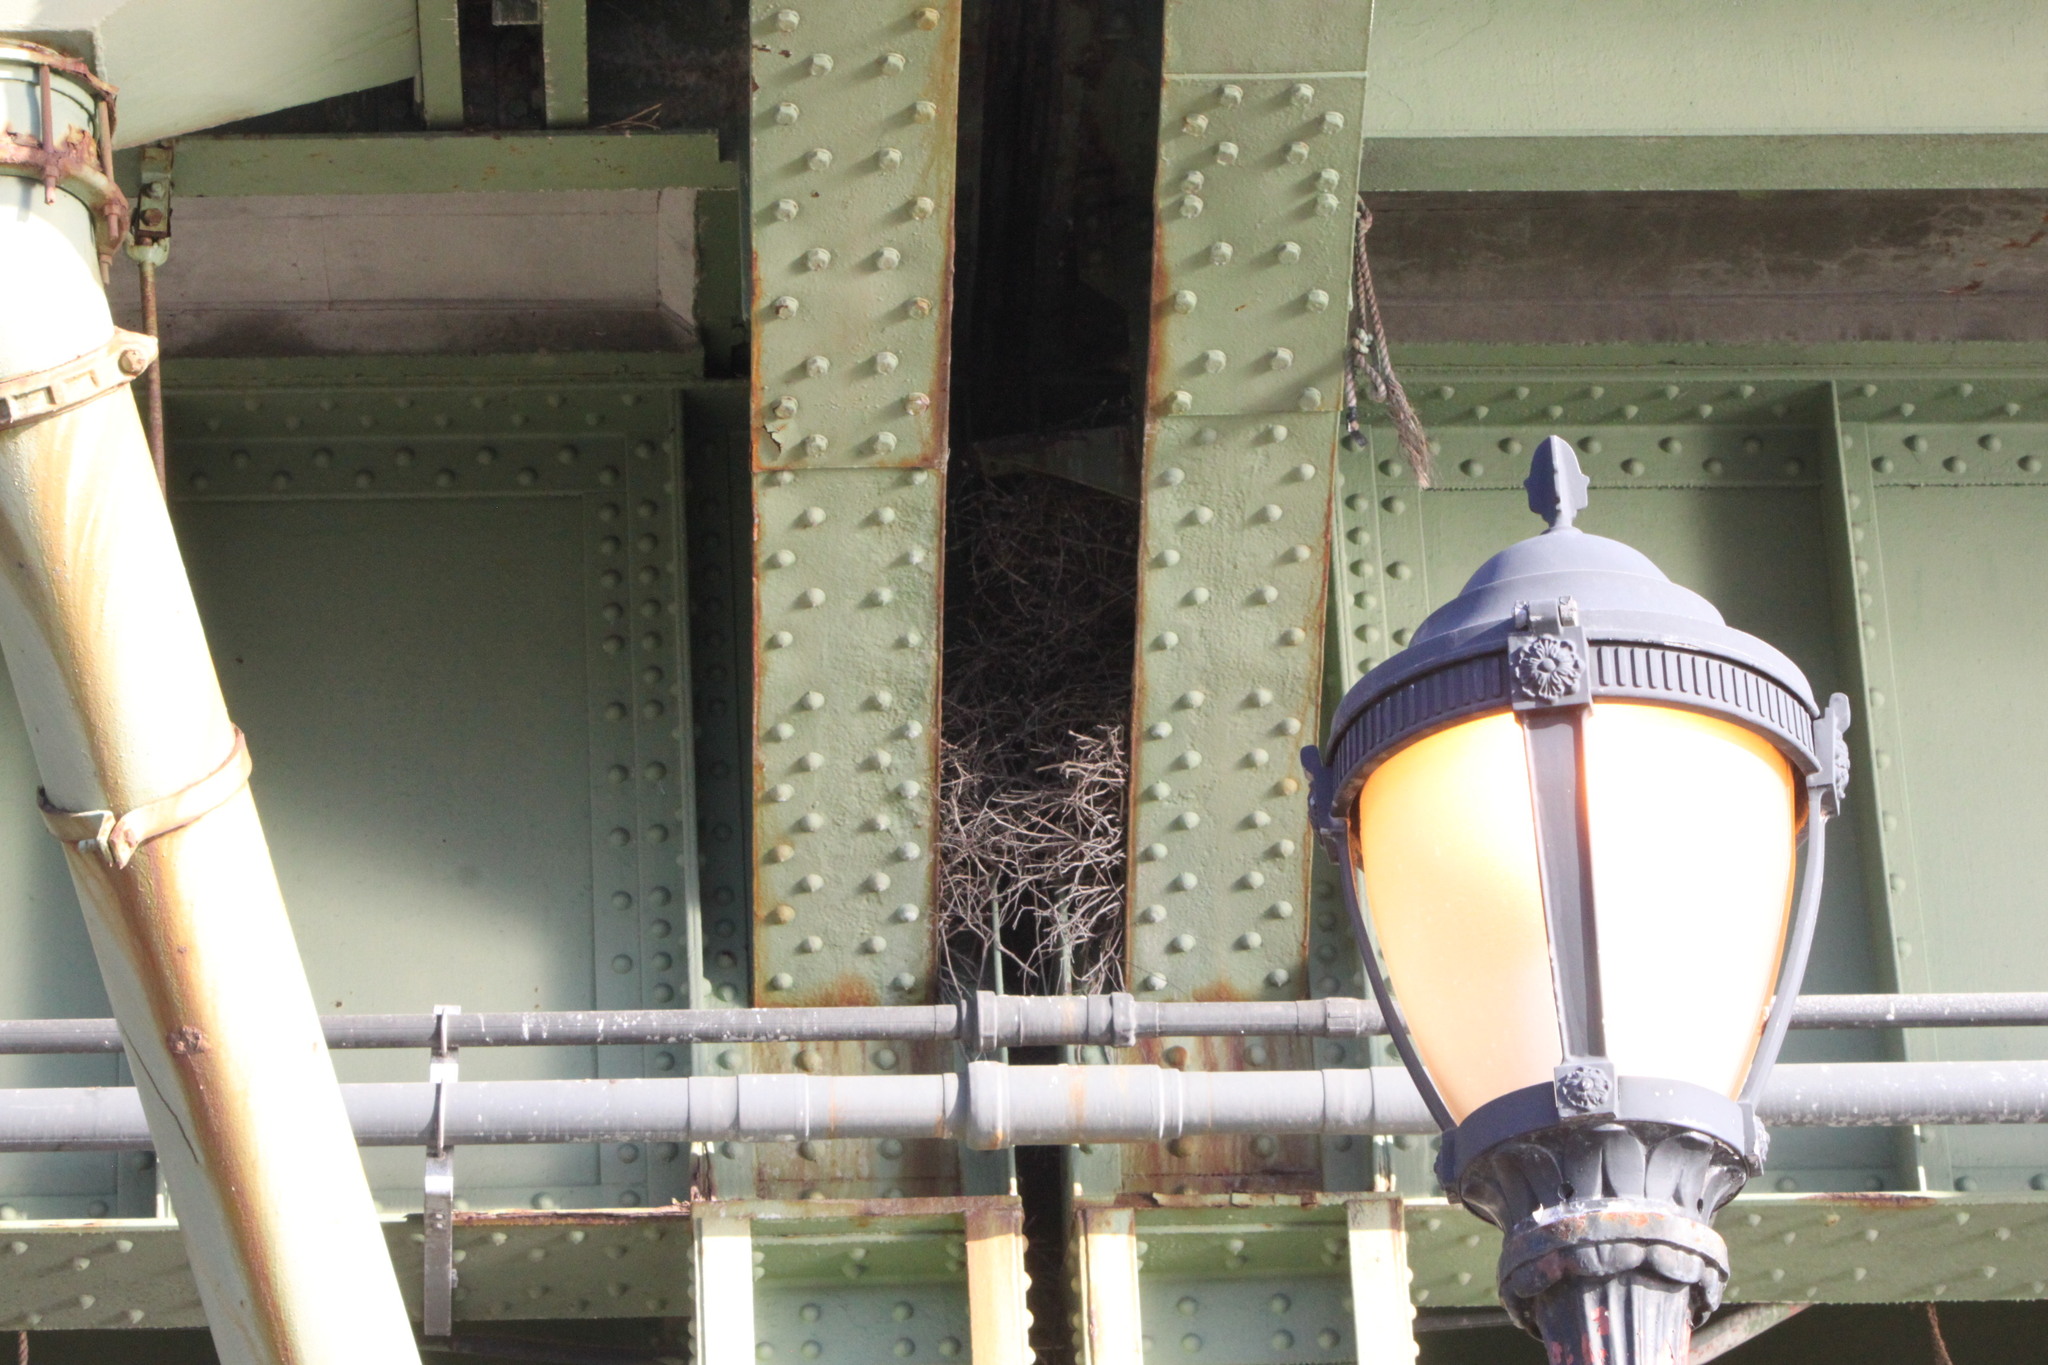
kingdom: Animalia
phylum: Chordata
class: Aves
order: Psittaciformes
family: Psittacidae
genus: Myiopsitta
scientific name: Myiopsitta monachus
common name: Monk parakeet
